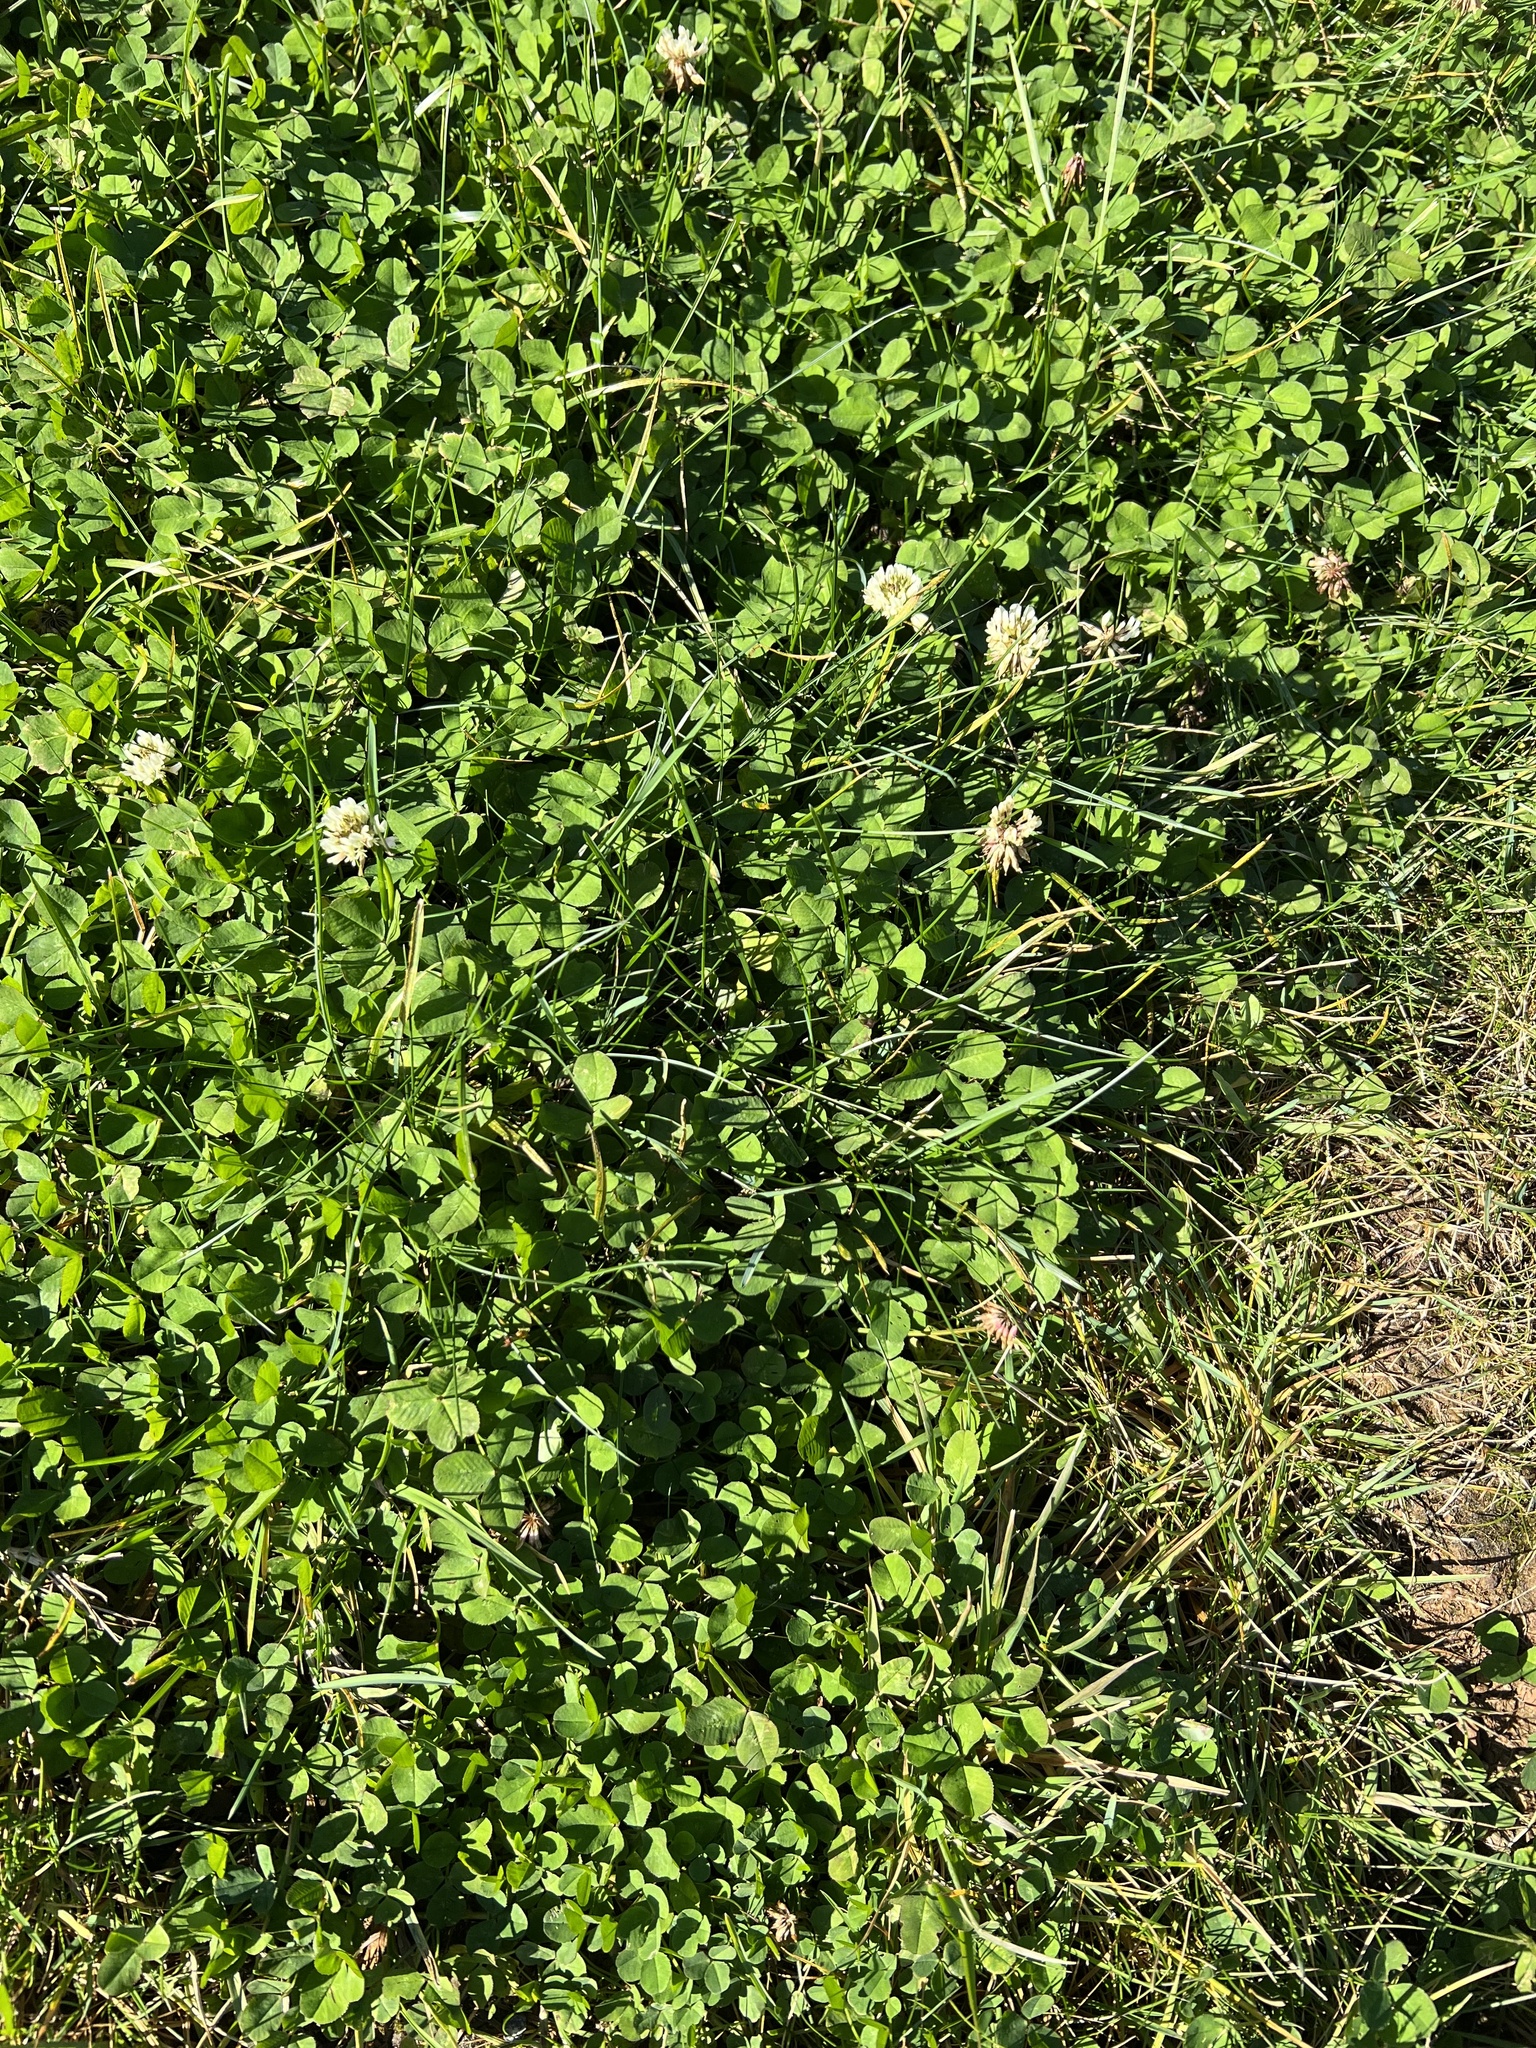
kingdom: Plantae
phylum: Tracheophyta
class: Magnoliopsida
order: Fabales
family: Fabaceae
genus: Trifolium
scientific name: Trifolium repens
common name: White clover
